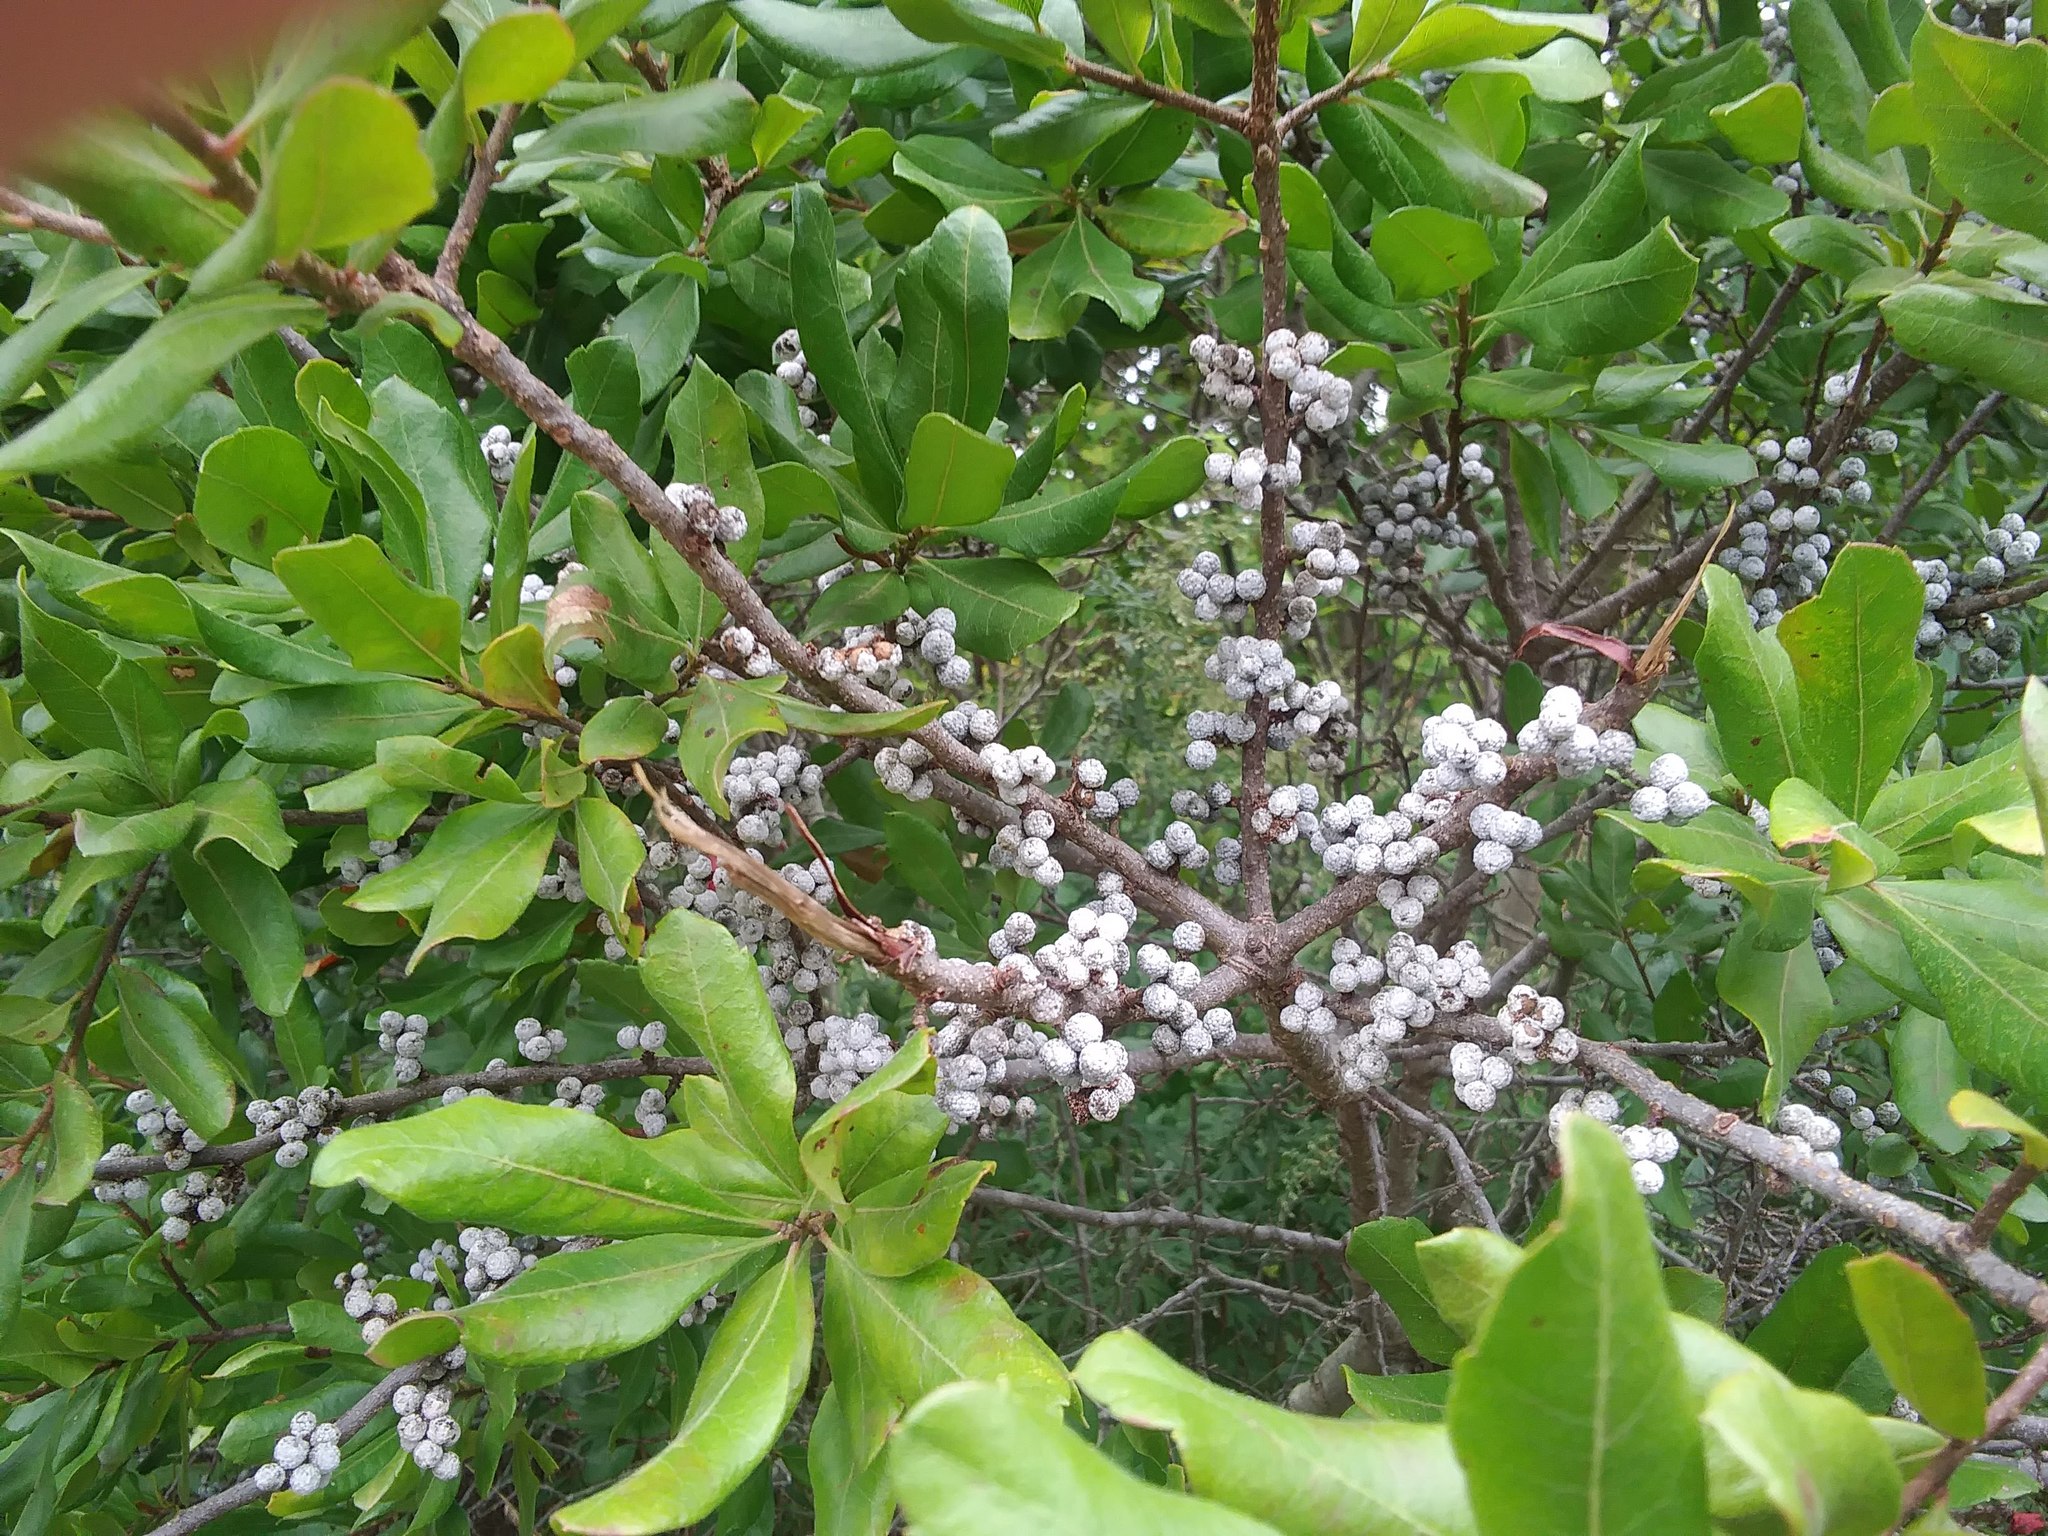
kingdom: Plantae
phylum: Tracheophyta
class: Magnoliopsida
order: Fagales
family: Myricaceae
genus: Morella
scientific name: Morella pensylvanica
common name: Northern bayberry
